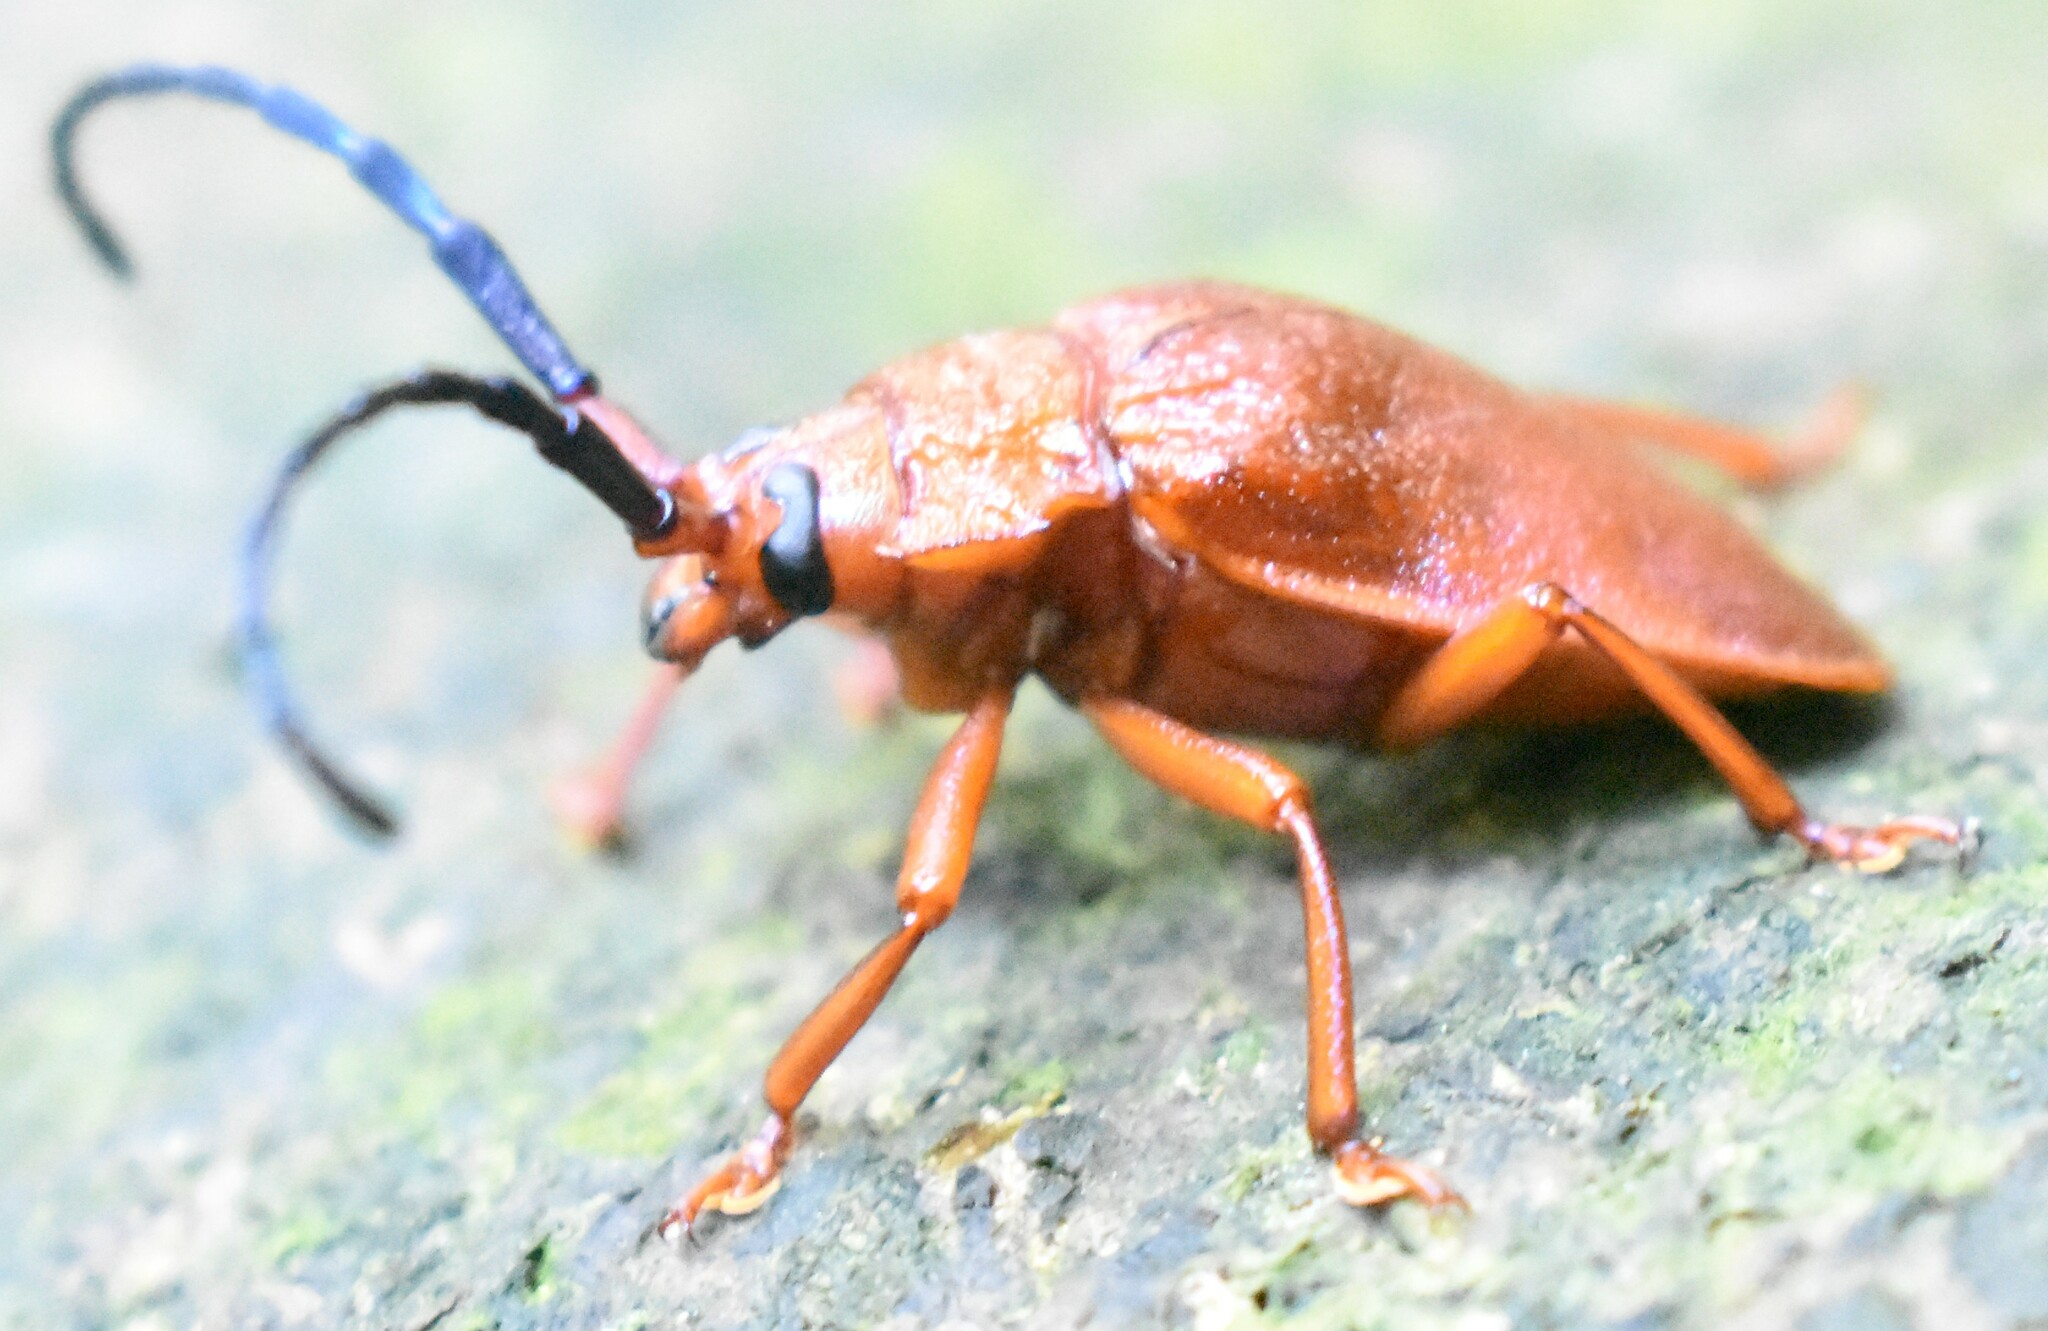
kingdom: Animalia
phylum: Arthropoda
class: Insecta
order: Coleoptera
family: Cerambycidae
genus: Hileolaspis
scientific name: Hileolaspis auratus
